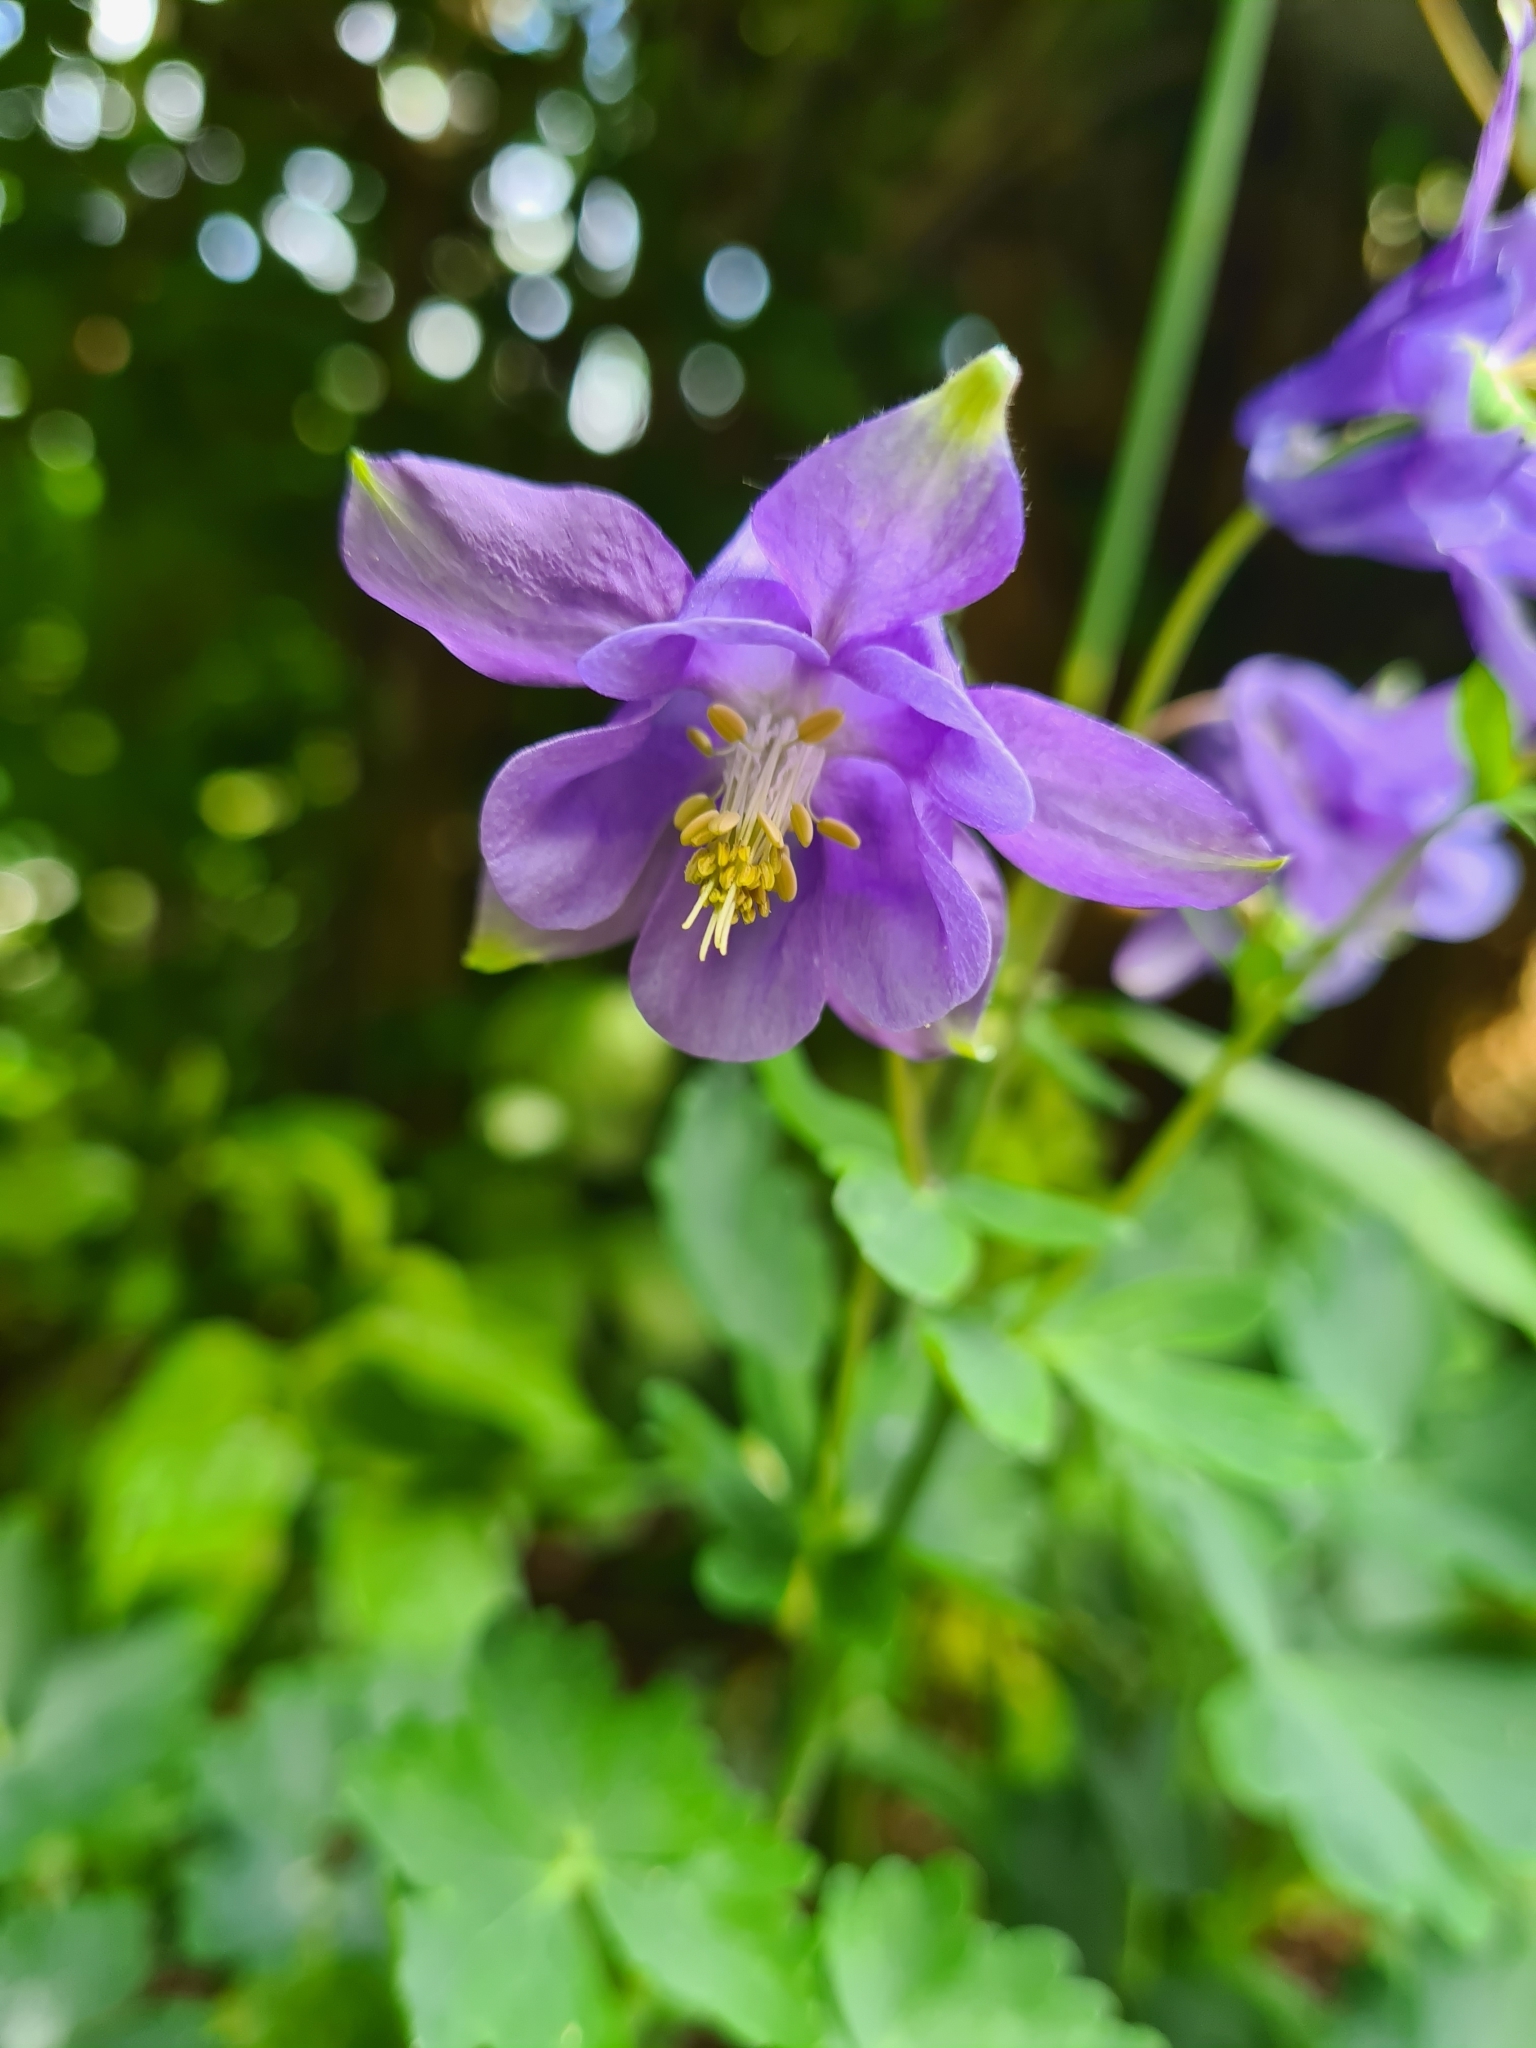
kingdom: Plantae
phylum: Tracheophyta
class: Magnoliopsida
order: Ranunculales
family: Ranunculaceae
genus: Aquilegia
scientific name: Aquilegia vulgaris
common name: Columbine
